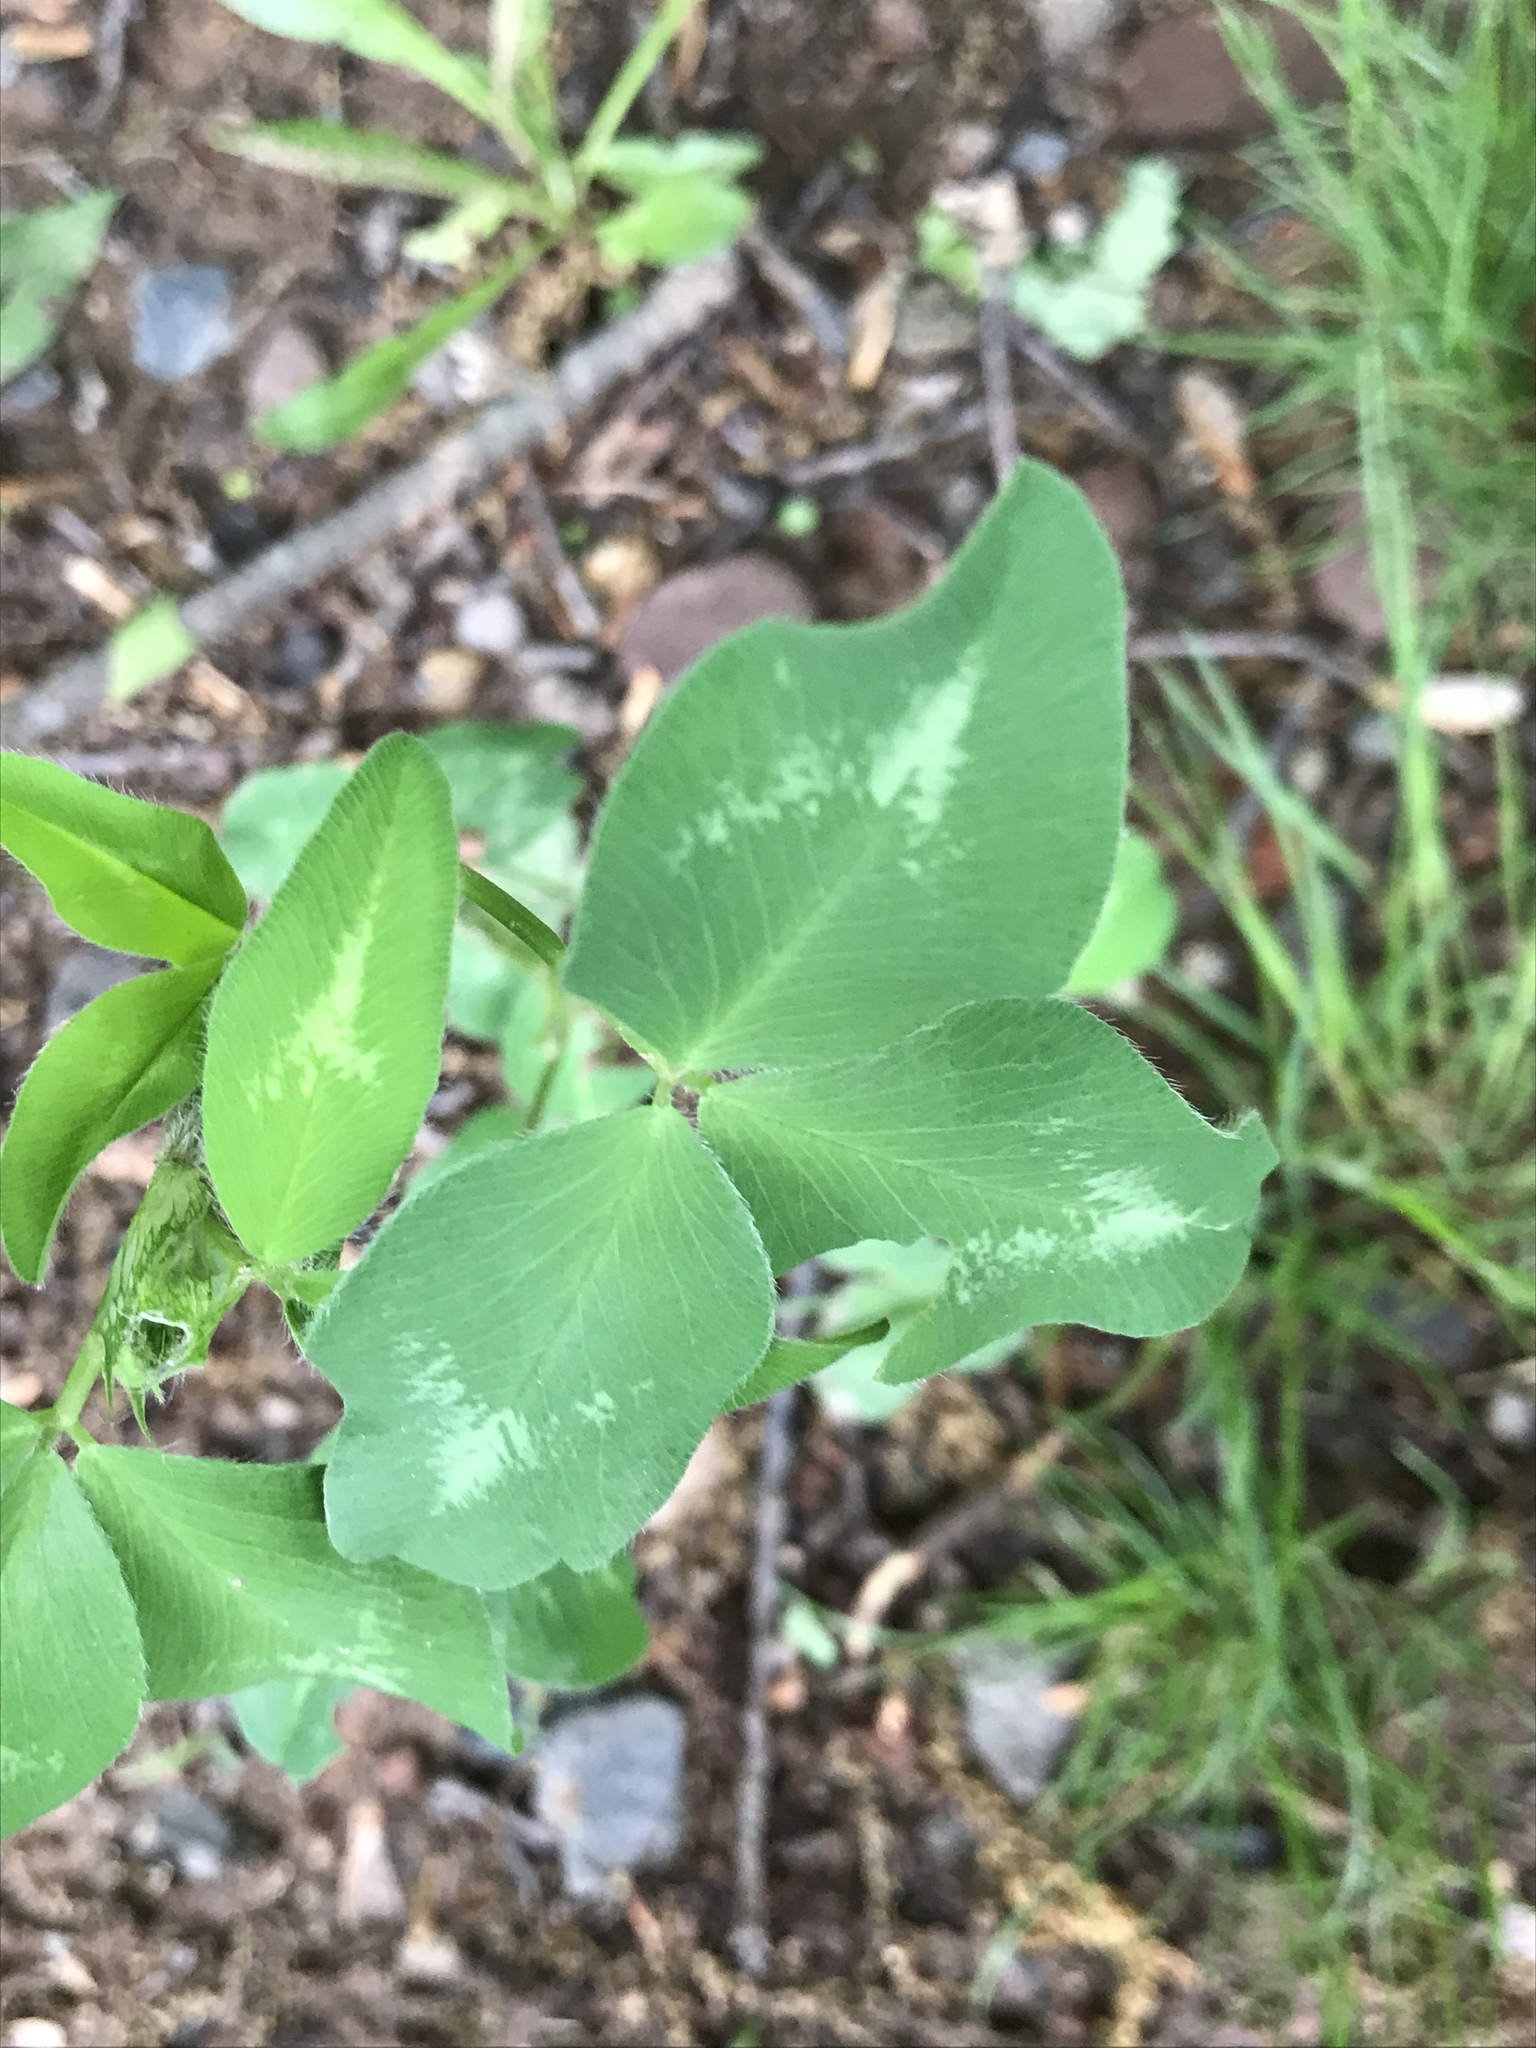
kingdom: Plantae
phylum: Tracheophyta
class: Magnoliopsida
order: Fabales
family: Fabaceae
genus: Trifolium
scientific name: Trifolium pratense
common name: Red clover
